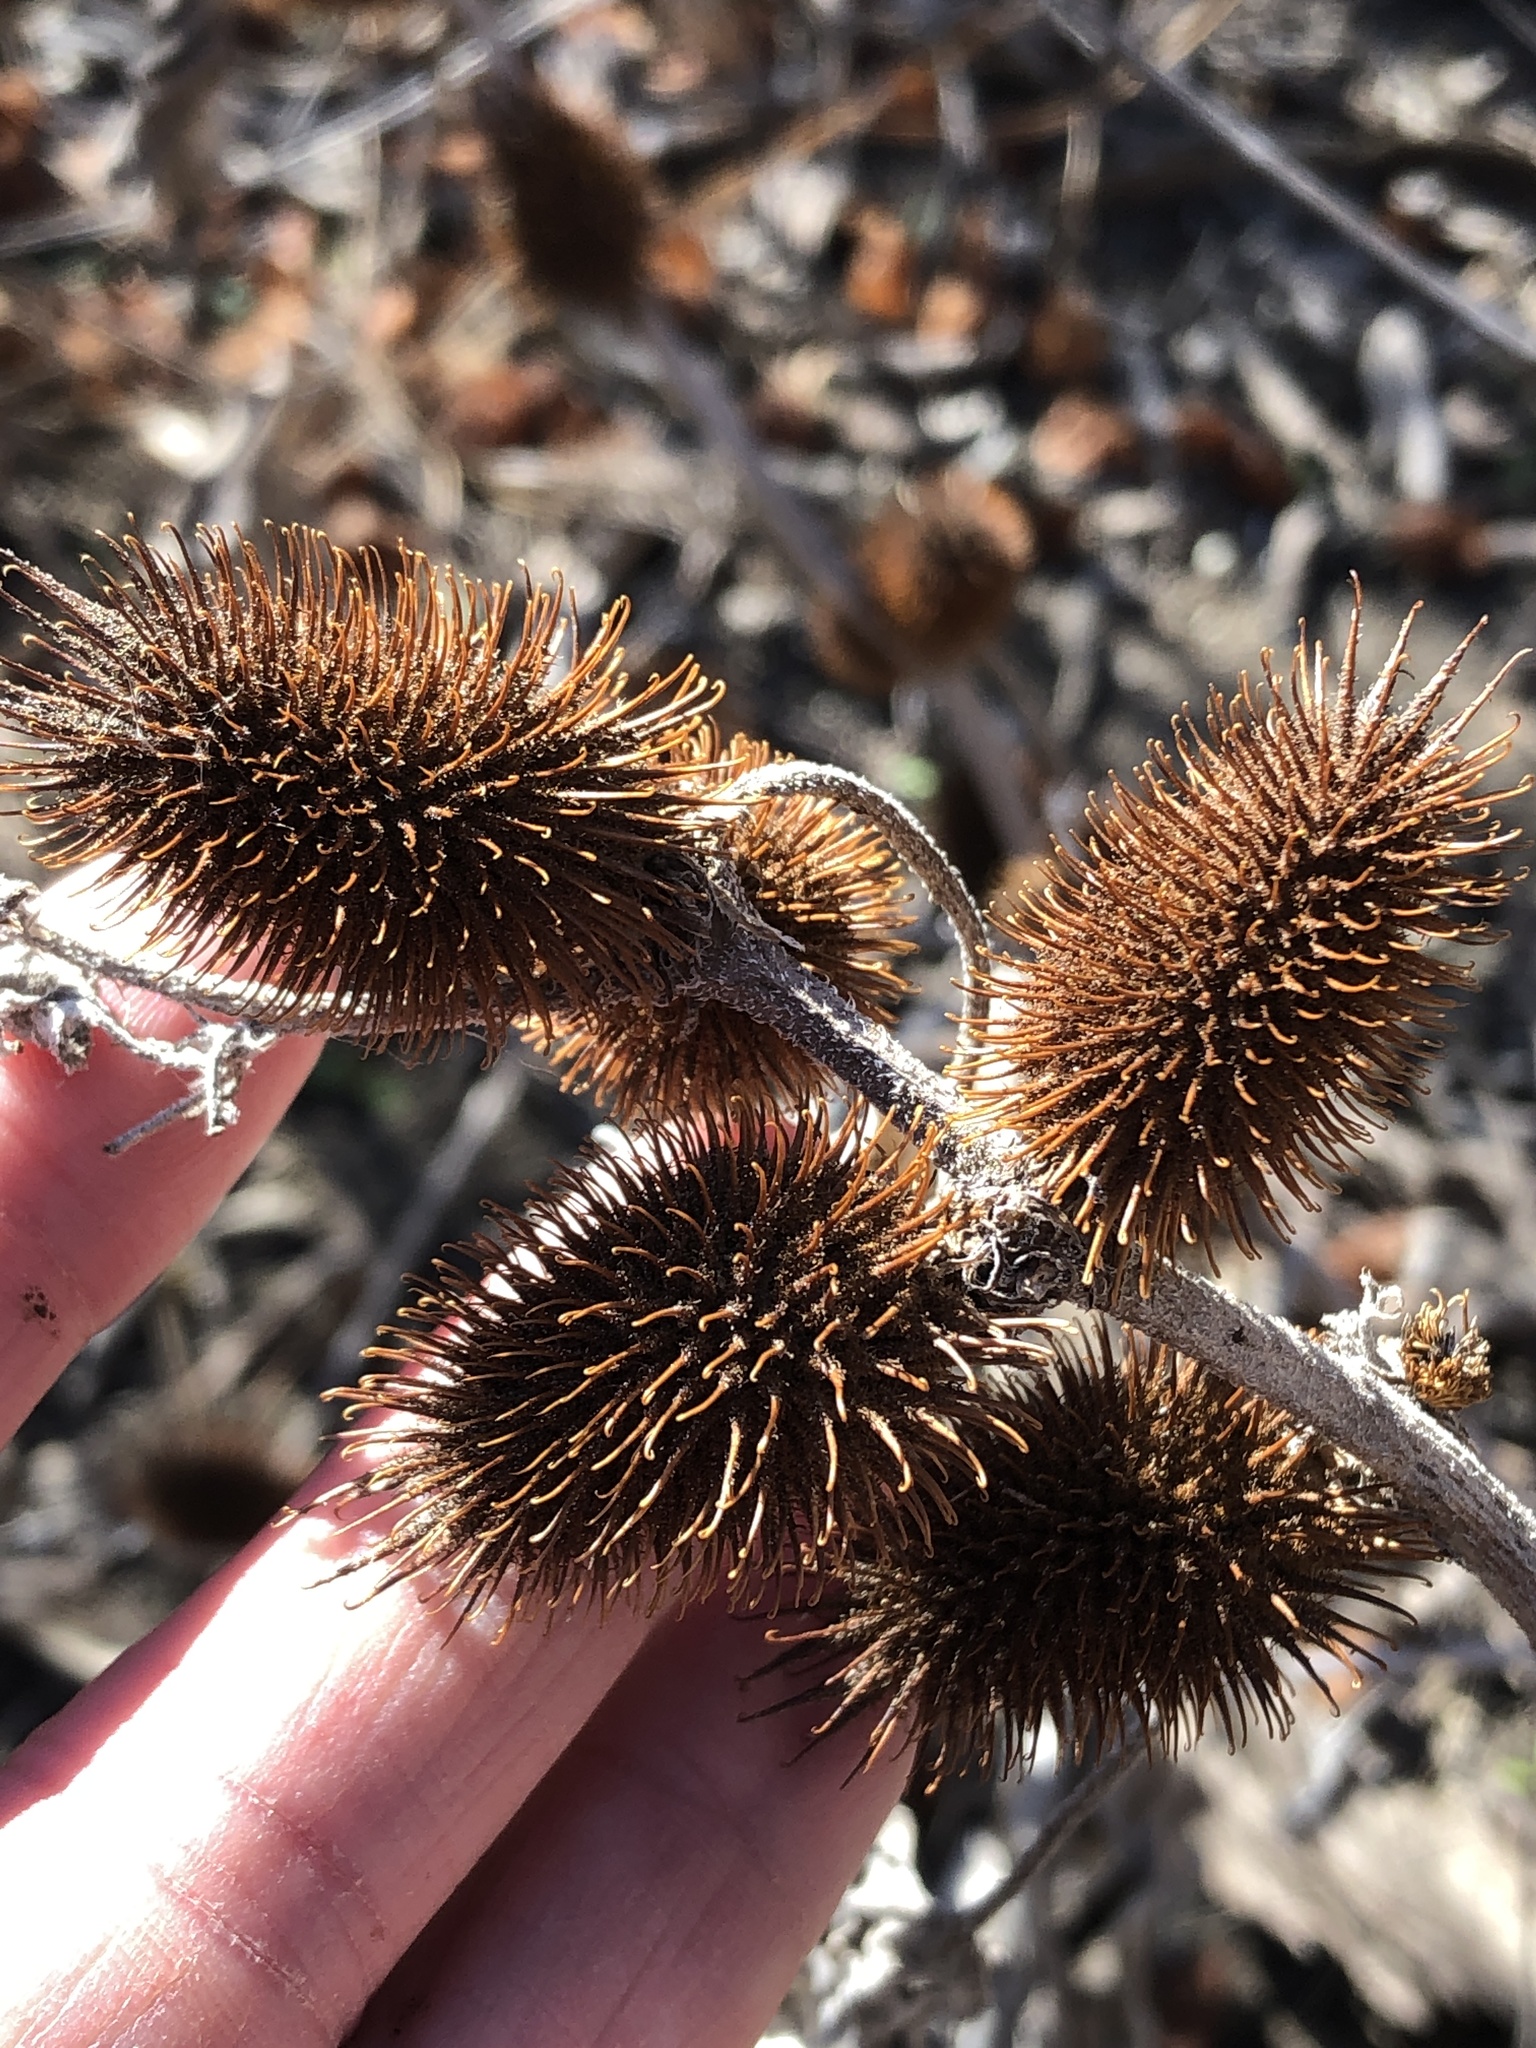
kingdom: Plantae
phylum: Tracheophyta
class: Magnoliopsida
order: Asterales
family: Asteraceae
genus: Xanthium
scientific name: Xanthium strumarium
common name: Rough cocklebur
